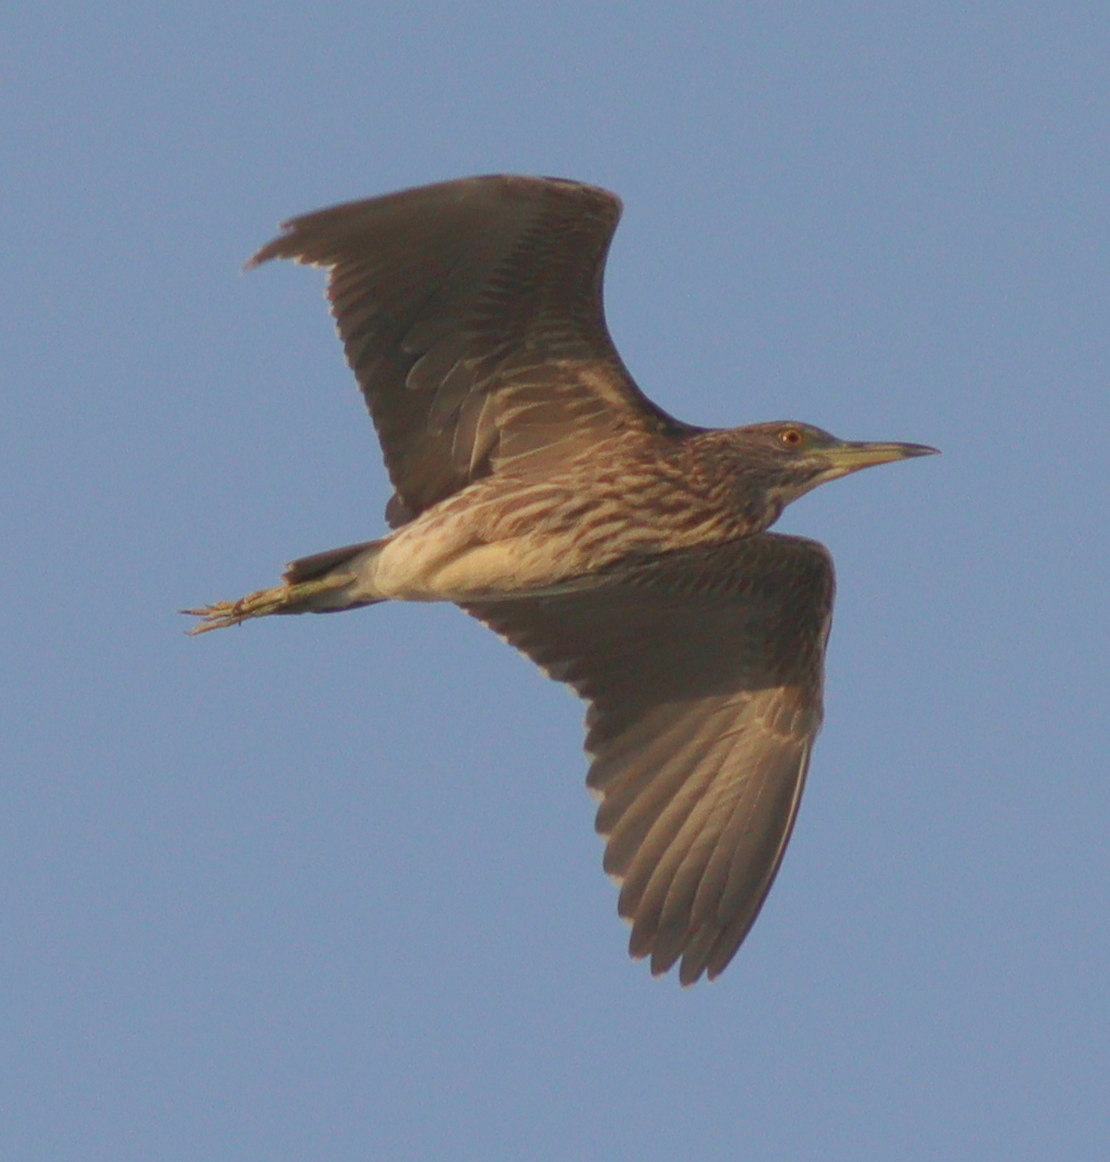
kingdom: Animalia
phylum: Chordata
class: Aves
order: Pelecaniformes
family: Ardeidae
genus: Nycticorax
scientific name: Nycticorax nycticorax
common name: Black-crowned night heron
